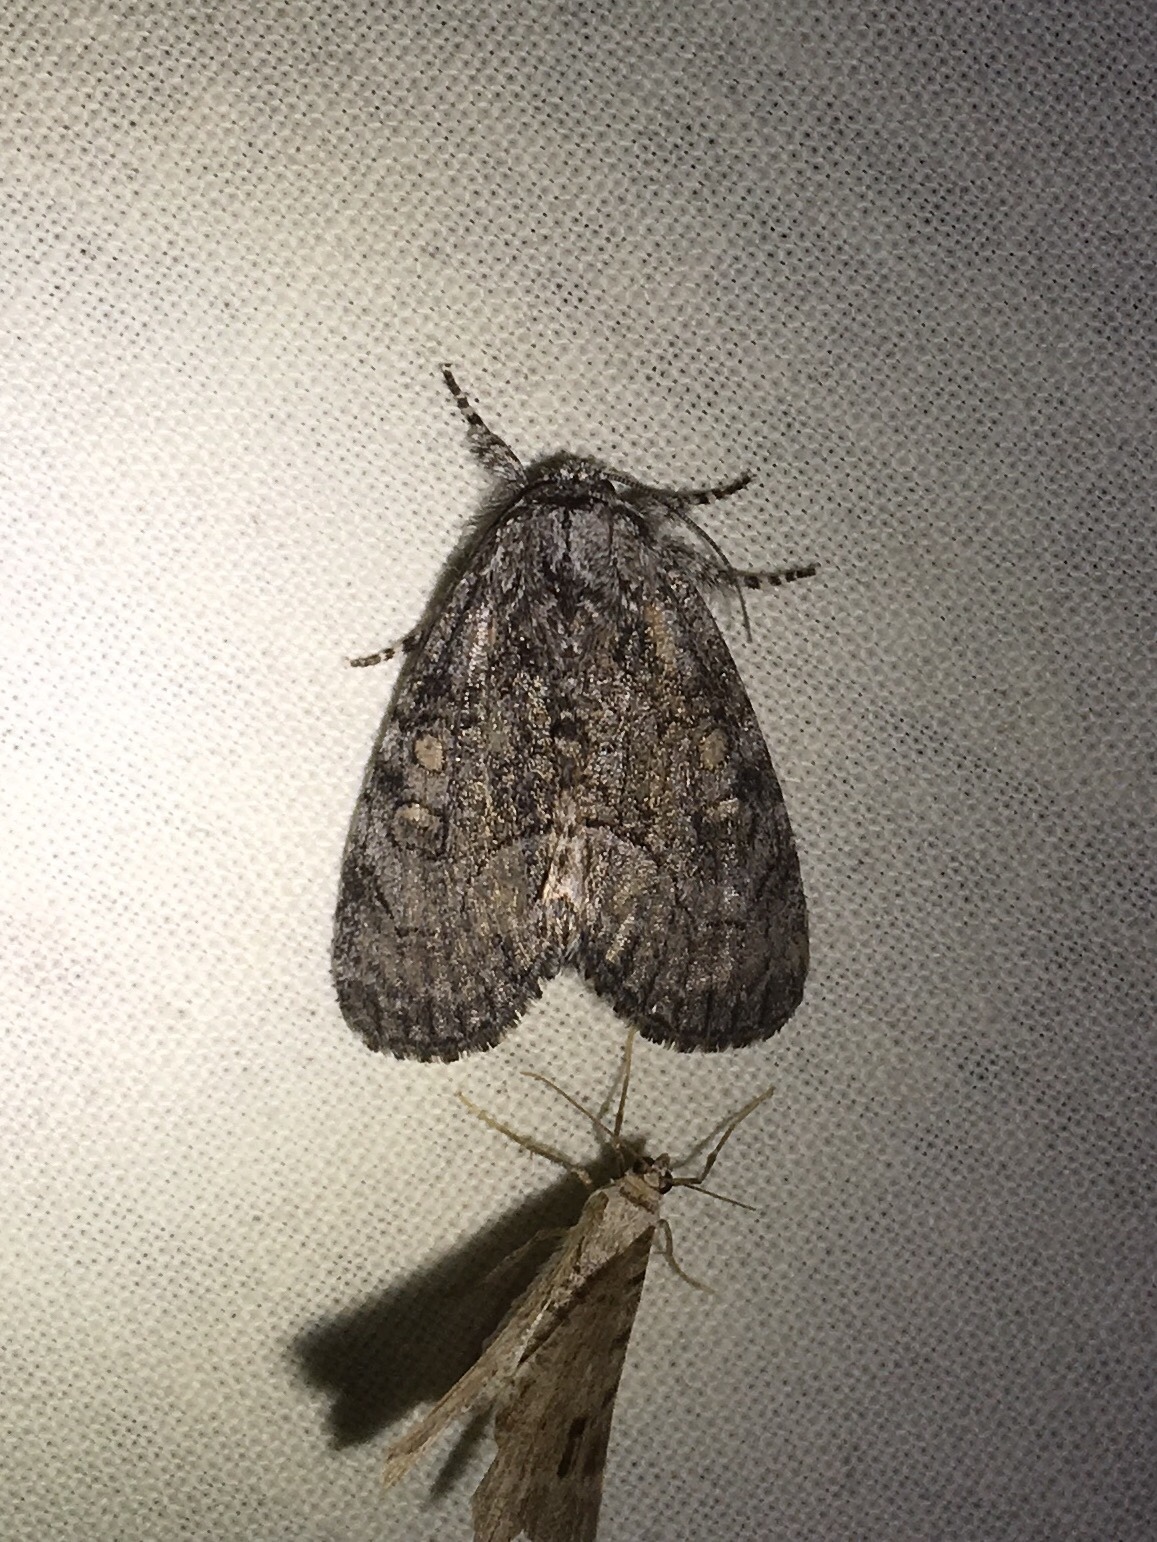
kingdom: Animalia
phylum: Arthropoda
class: Insecta
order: Lepidoptera
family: Noctuidae
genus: Raphia
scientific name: Raphia frater
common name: Brother
